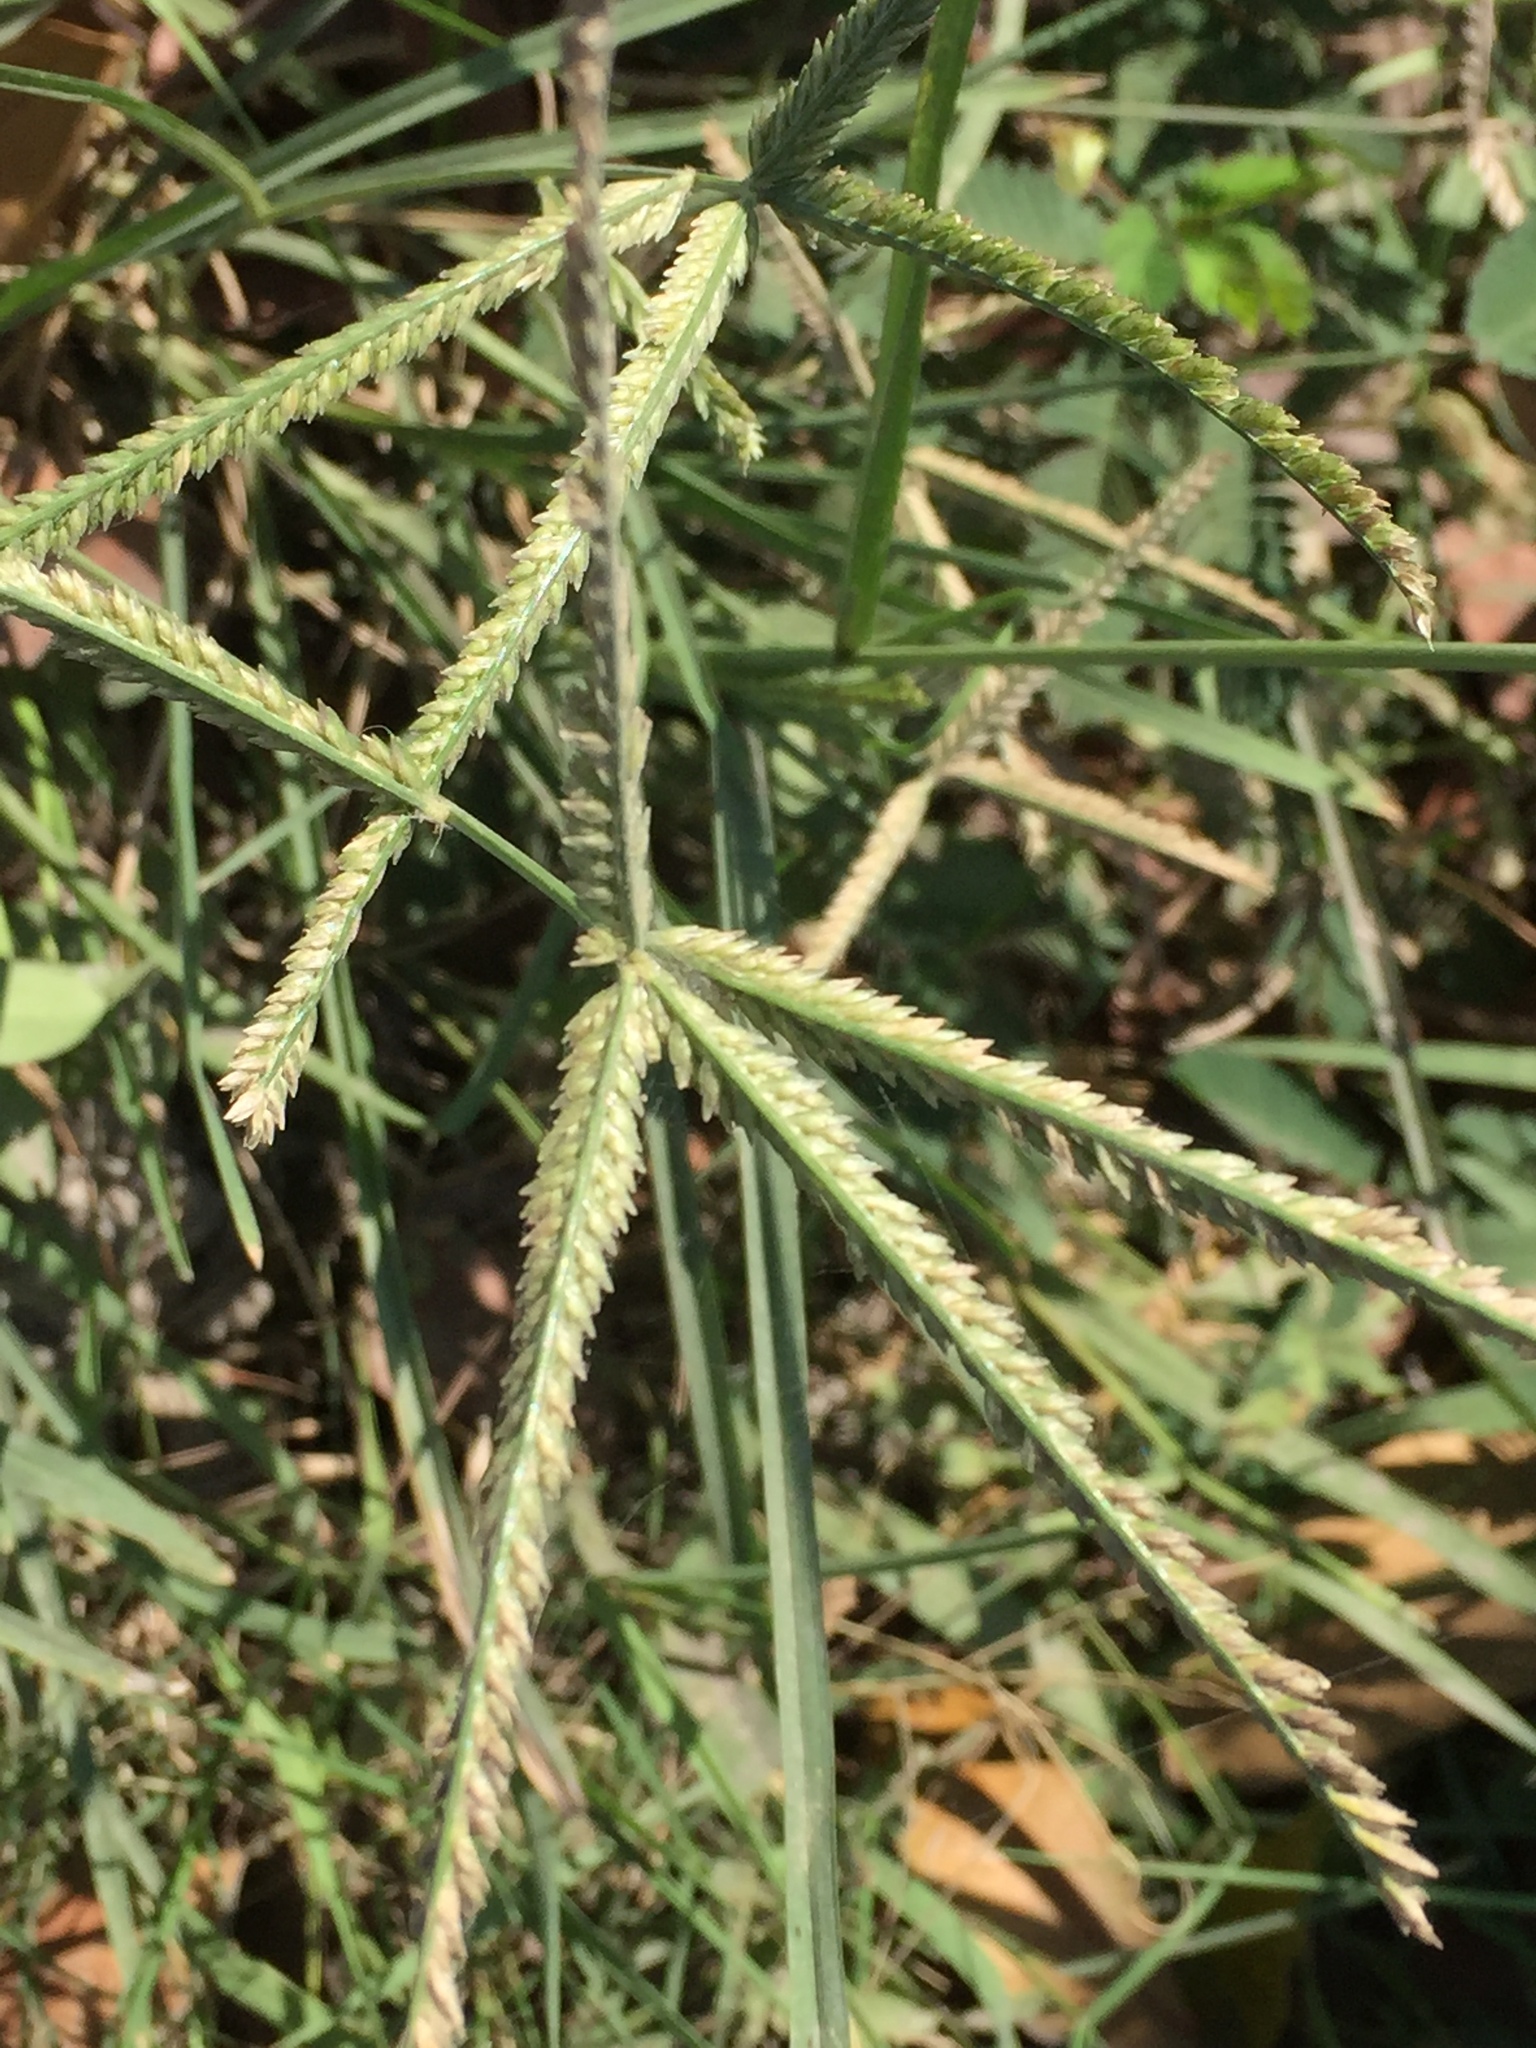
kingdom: Plantae
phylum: Tracheophyta
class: Liliopsida
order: Poales
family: Poaceae
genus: Eleusine
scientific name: Eleusine indica
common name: Yard-grass
